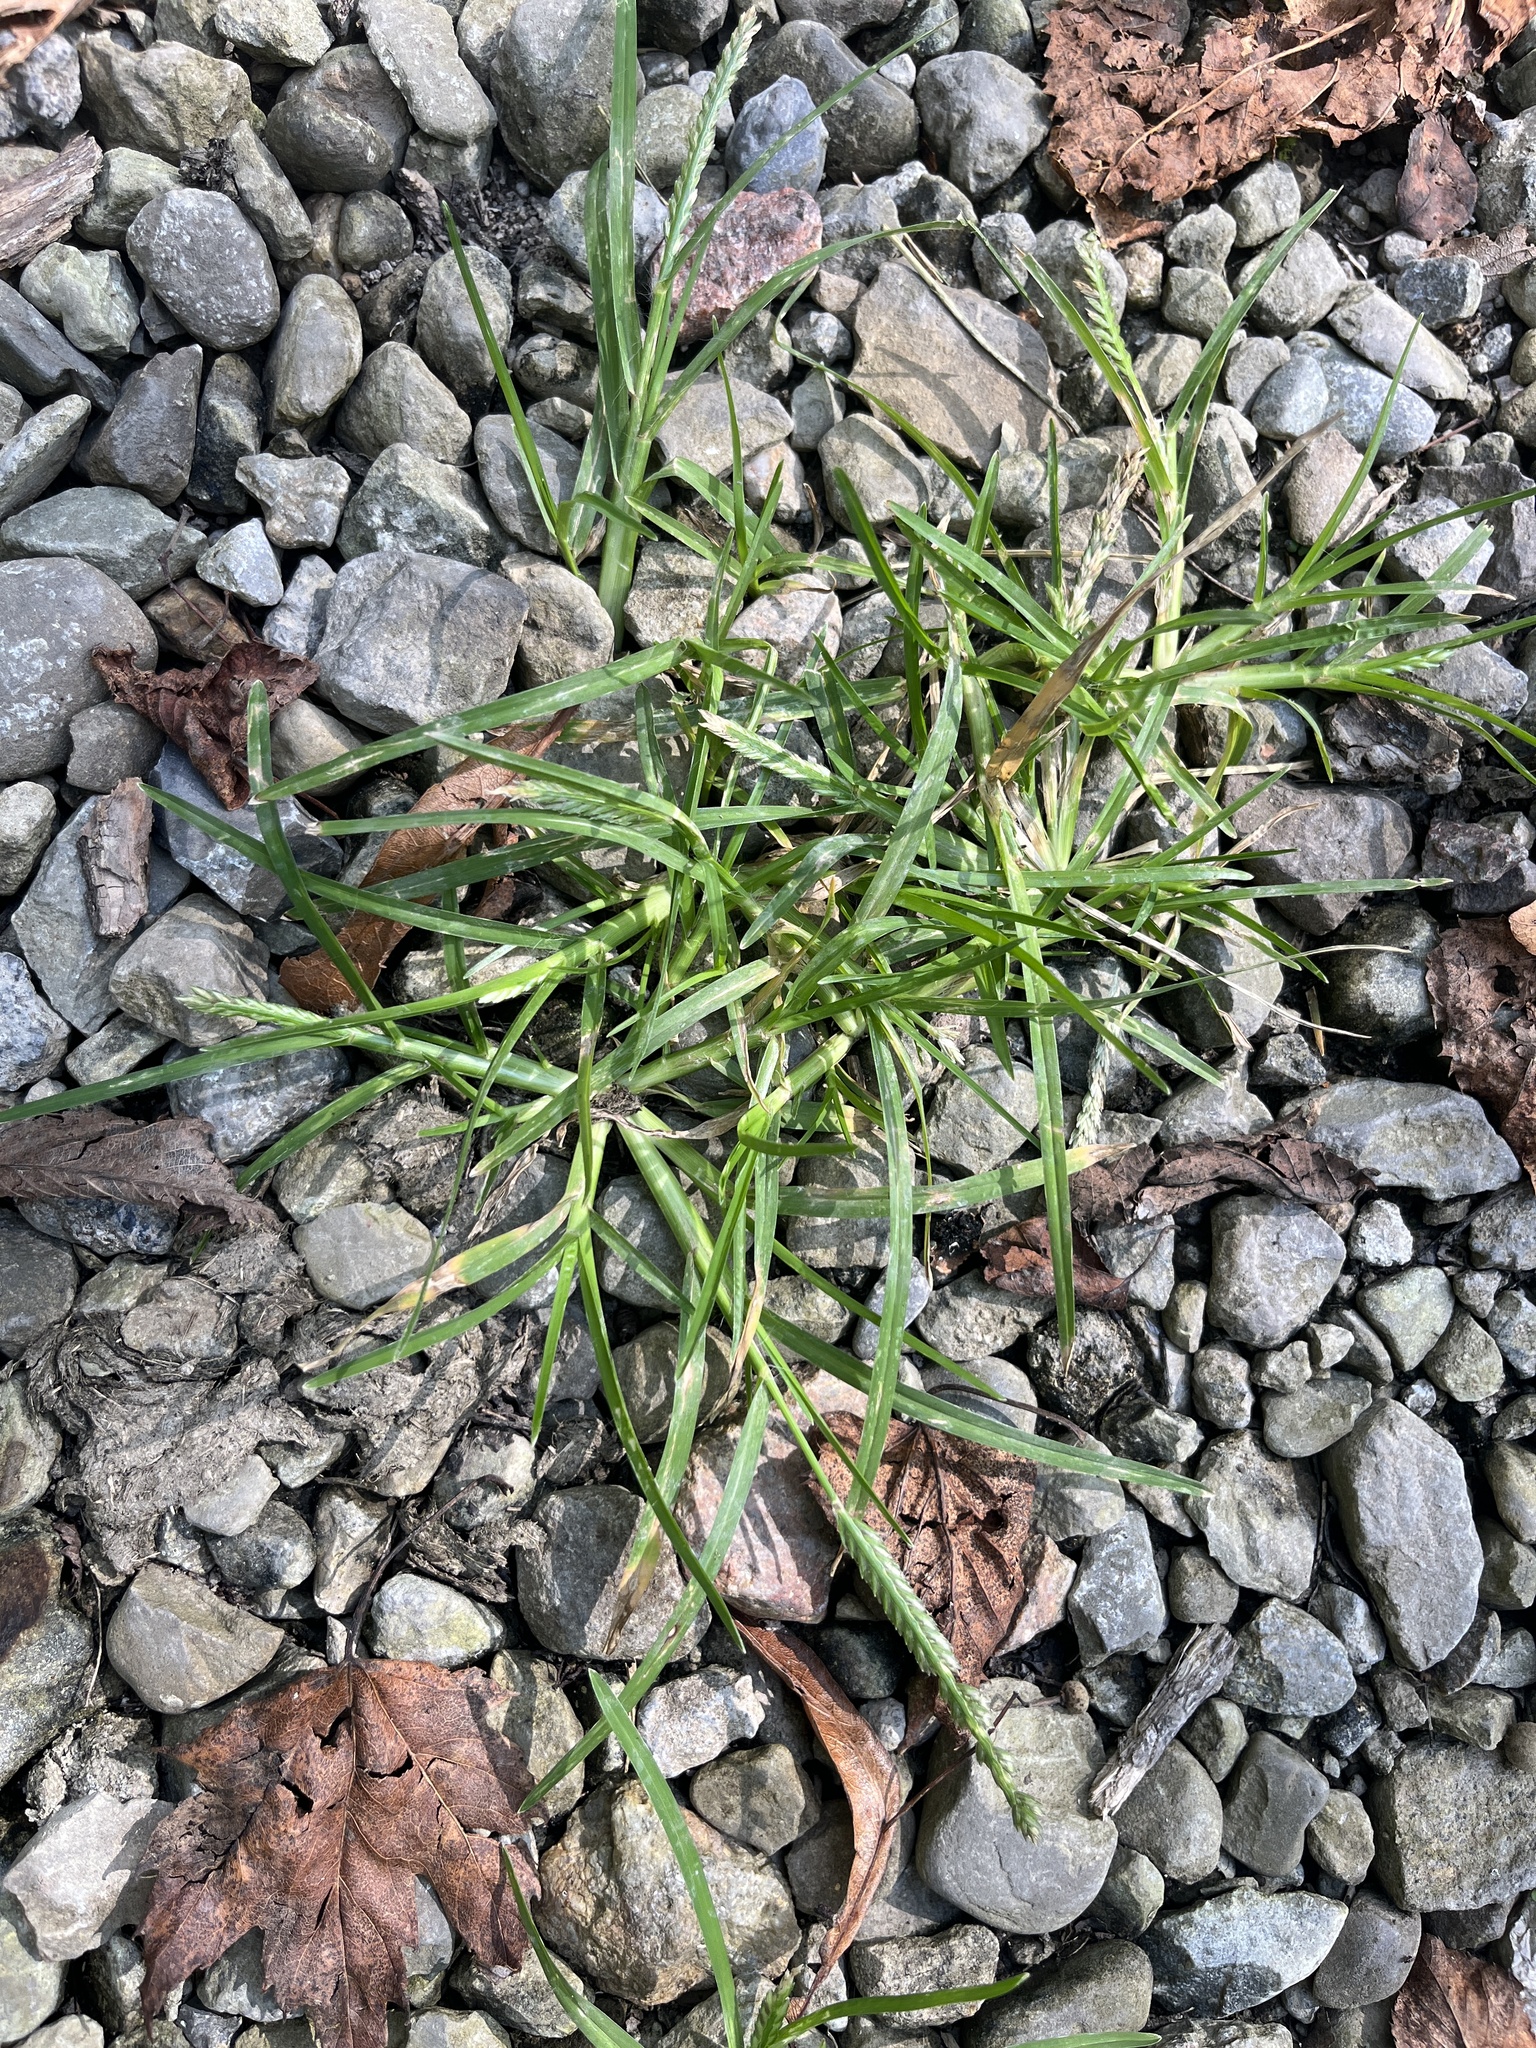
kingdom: Plantae
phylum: Tracheophyta
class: Liliopsida
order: Poales
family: Poaceae
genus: Eleusine
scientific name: Eleusine indica
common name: Yard-grass
